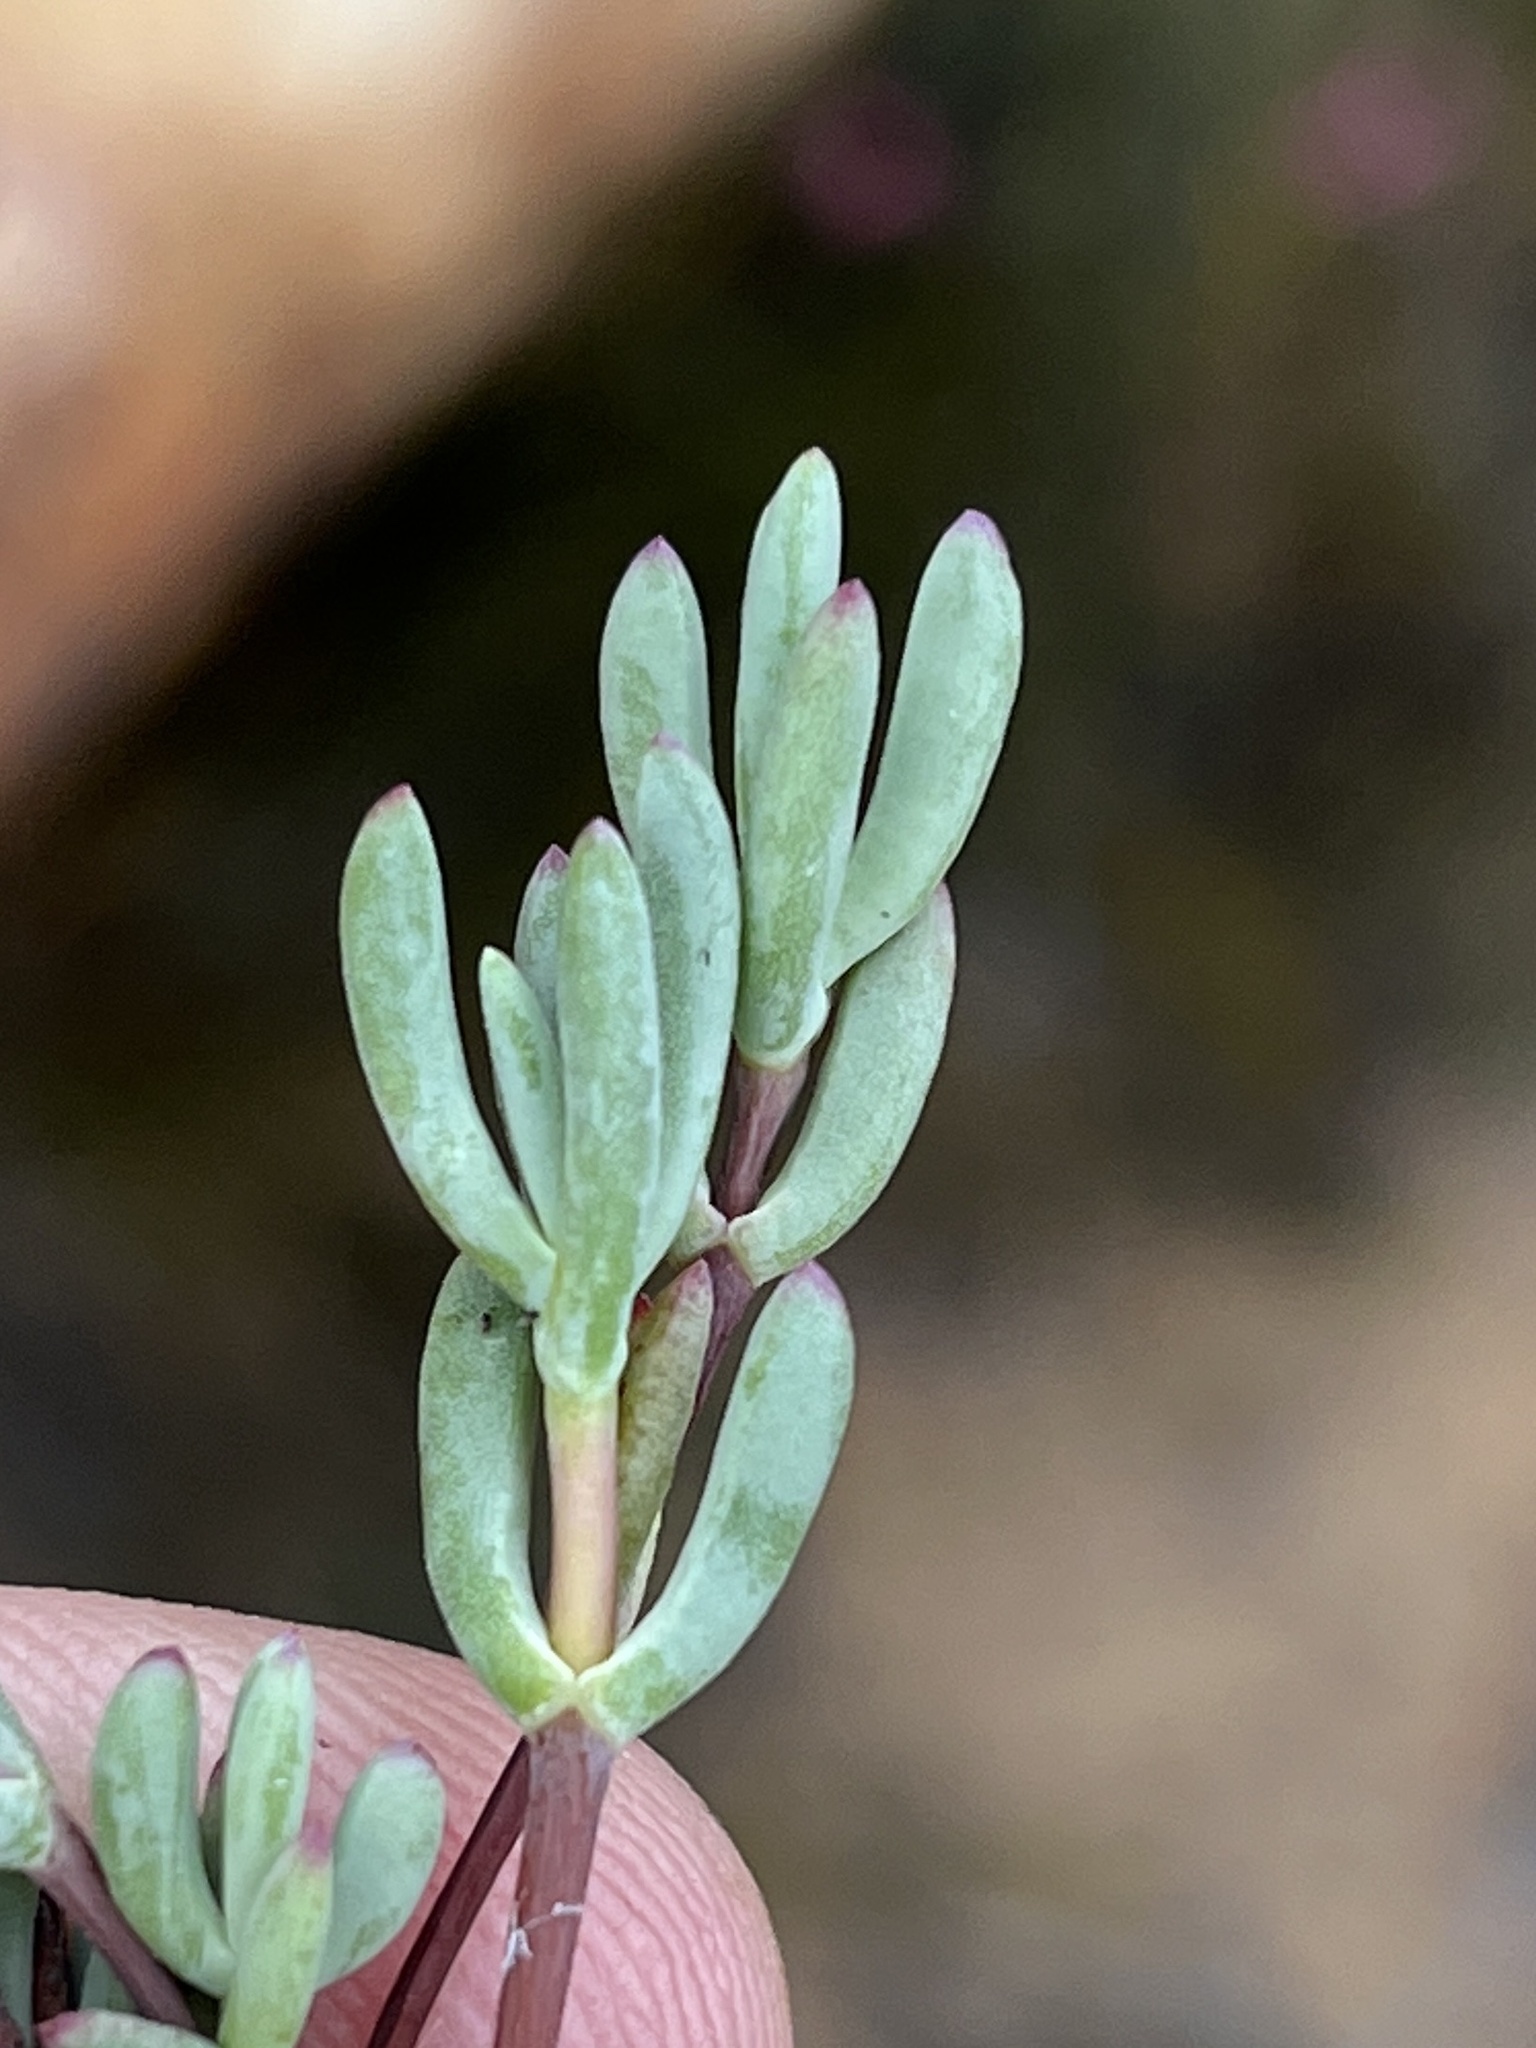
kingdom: Plantae
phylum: Tracheophyta
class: Magnoliopsida
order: Caryophyllales
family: Aizoaceae
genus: Lampranthus
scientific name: Lampranthus swartbergensis
